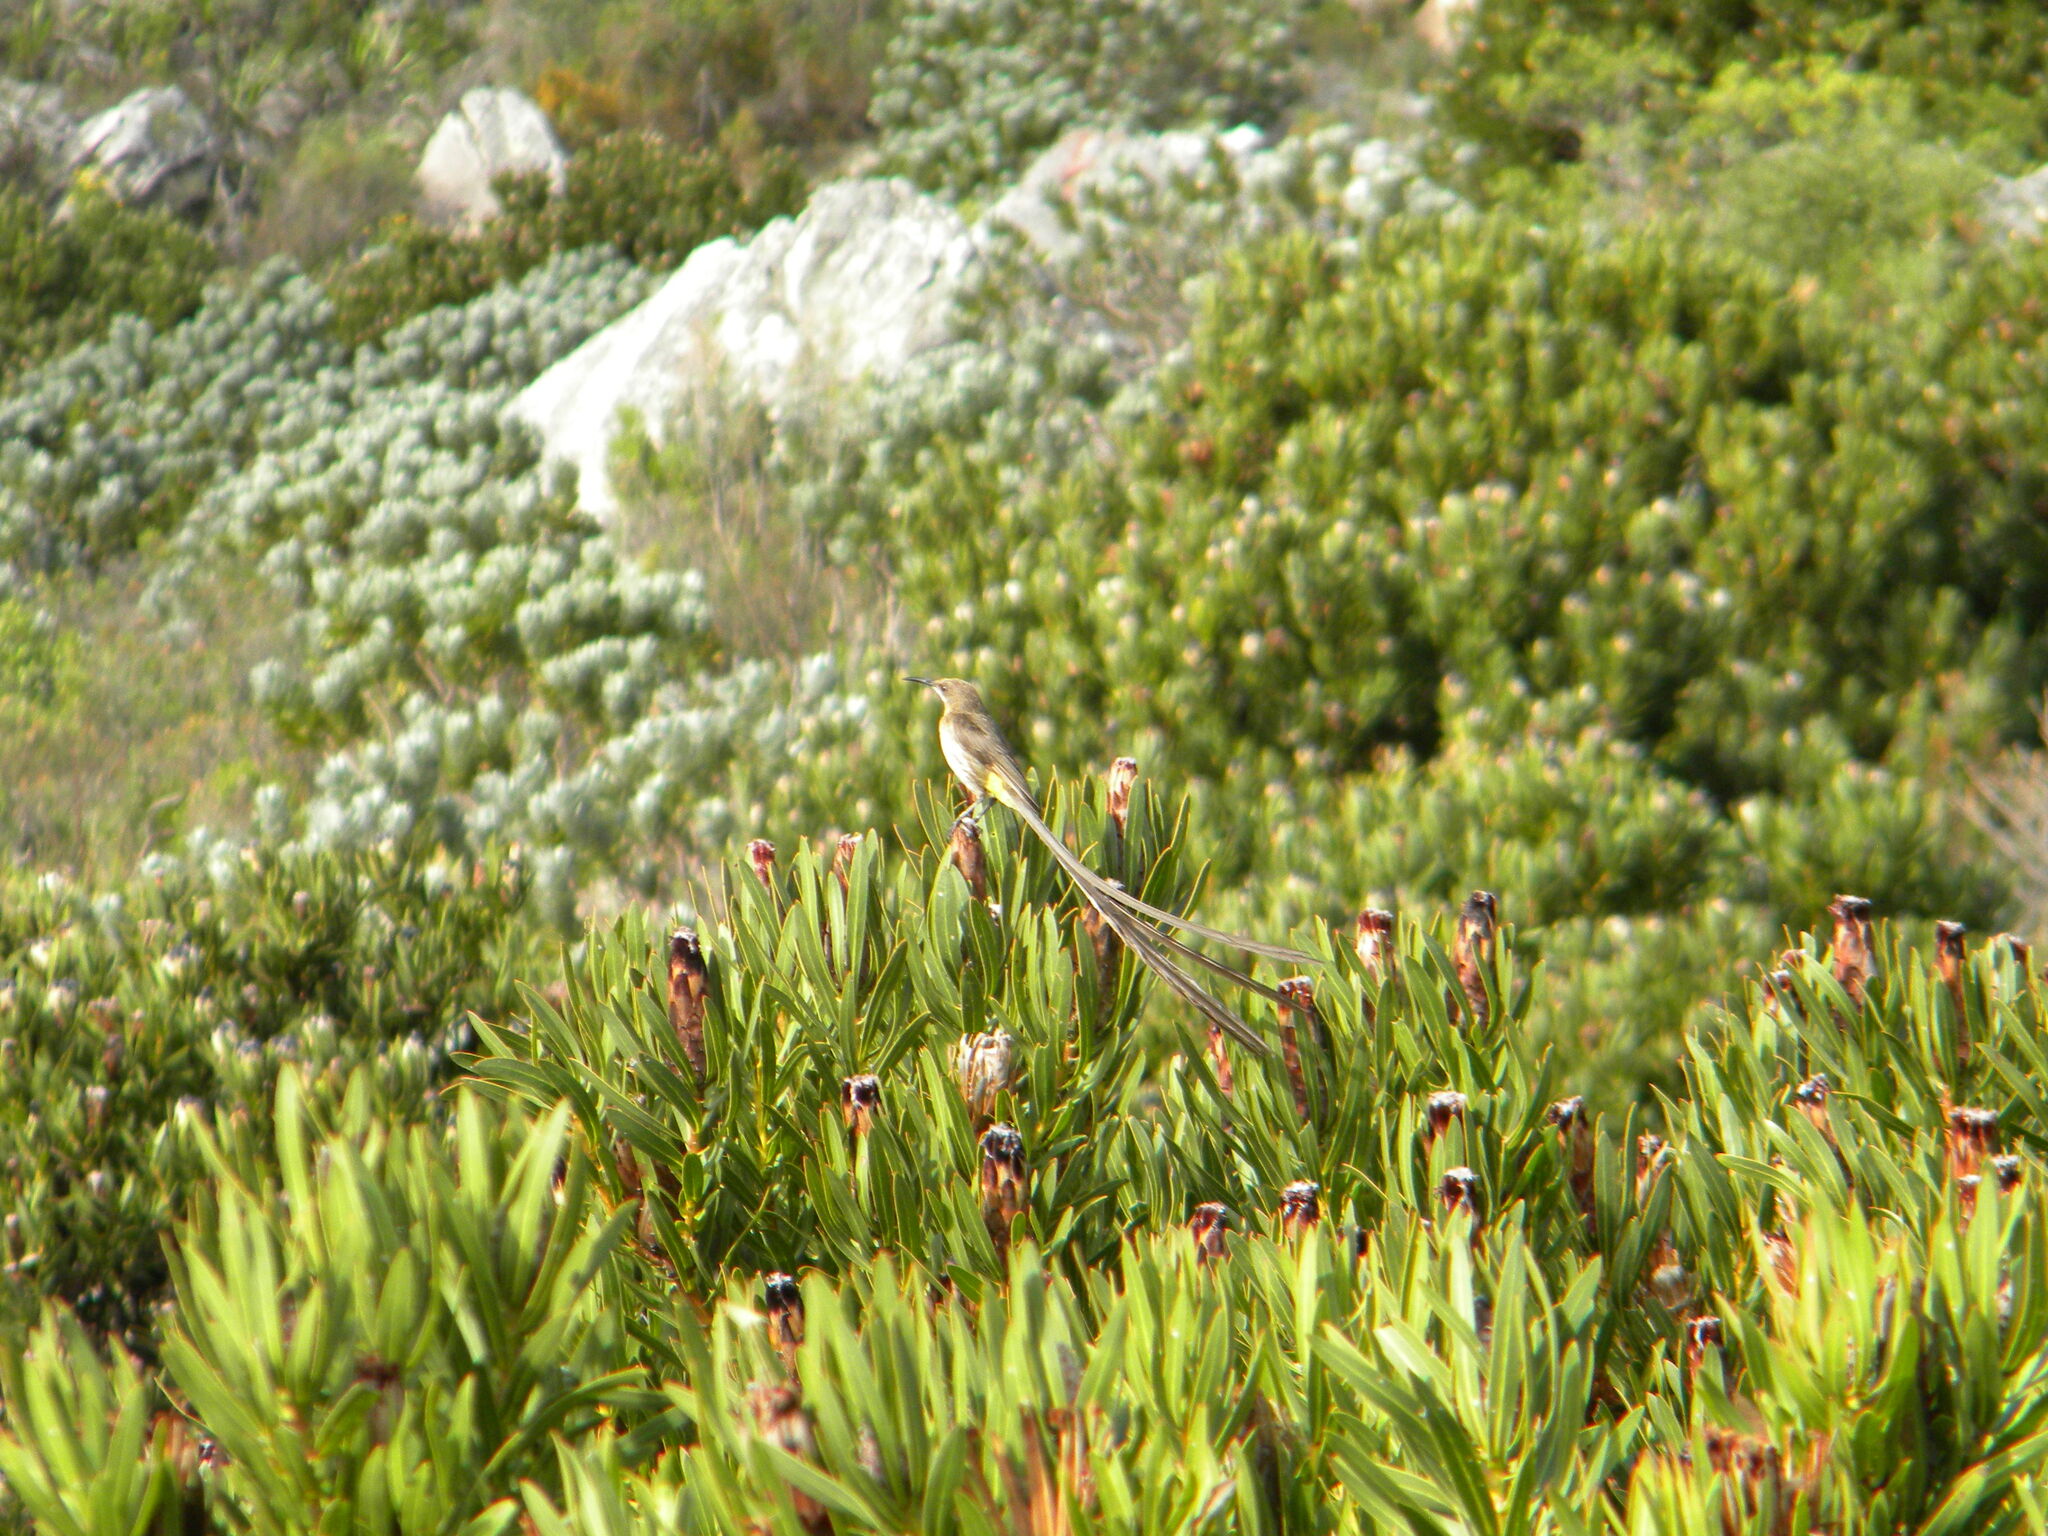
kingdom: Animalia
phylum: Chordata
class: Aves
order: Passeriformes
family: Promeropidae
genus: Promerops
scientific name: Promerops cafer
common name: Cape sugarbird
